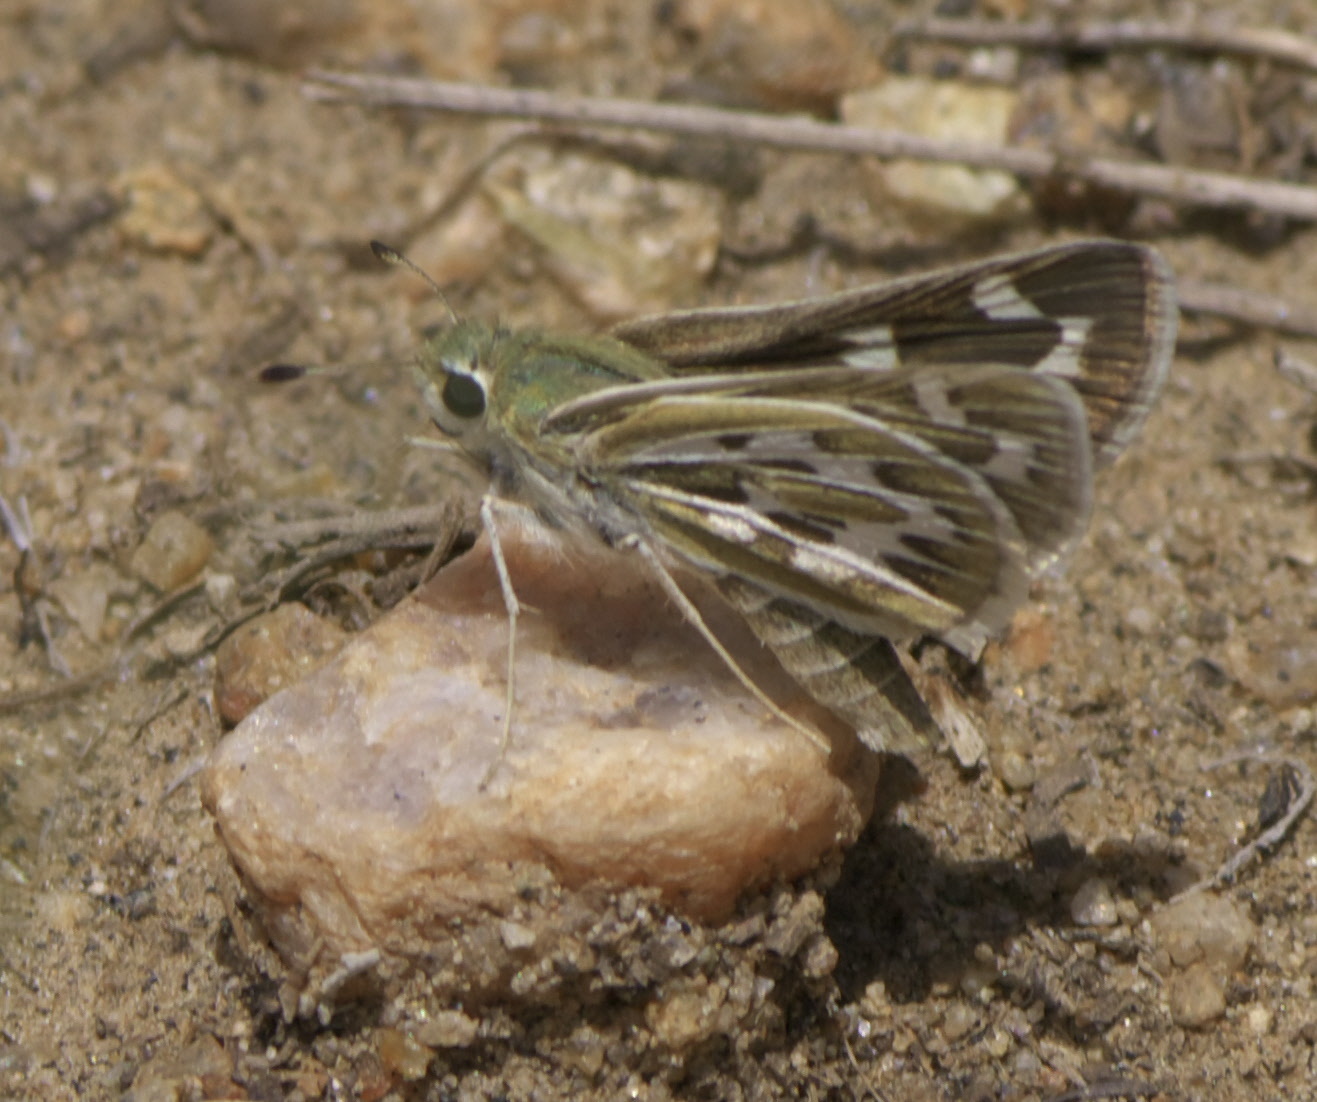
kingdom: Animalia
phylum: Arthropoda
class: Insecta
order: Lepidoptera
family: Hesperiidae
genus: Hesperia
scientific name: Hesperia uncas
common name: Uncas skipper
